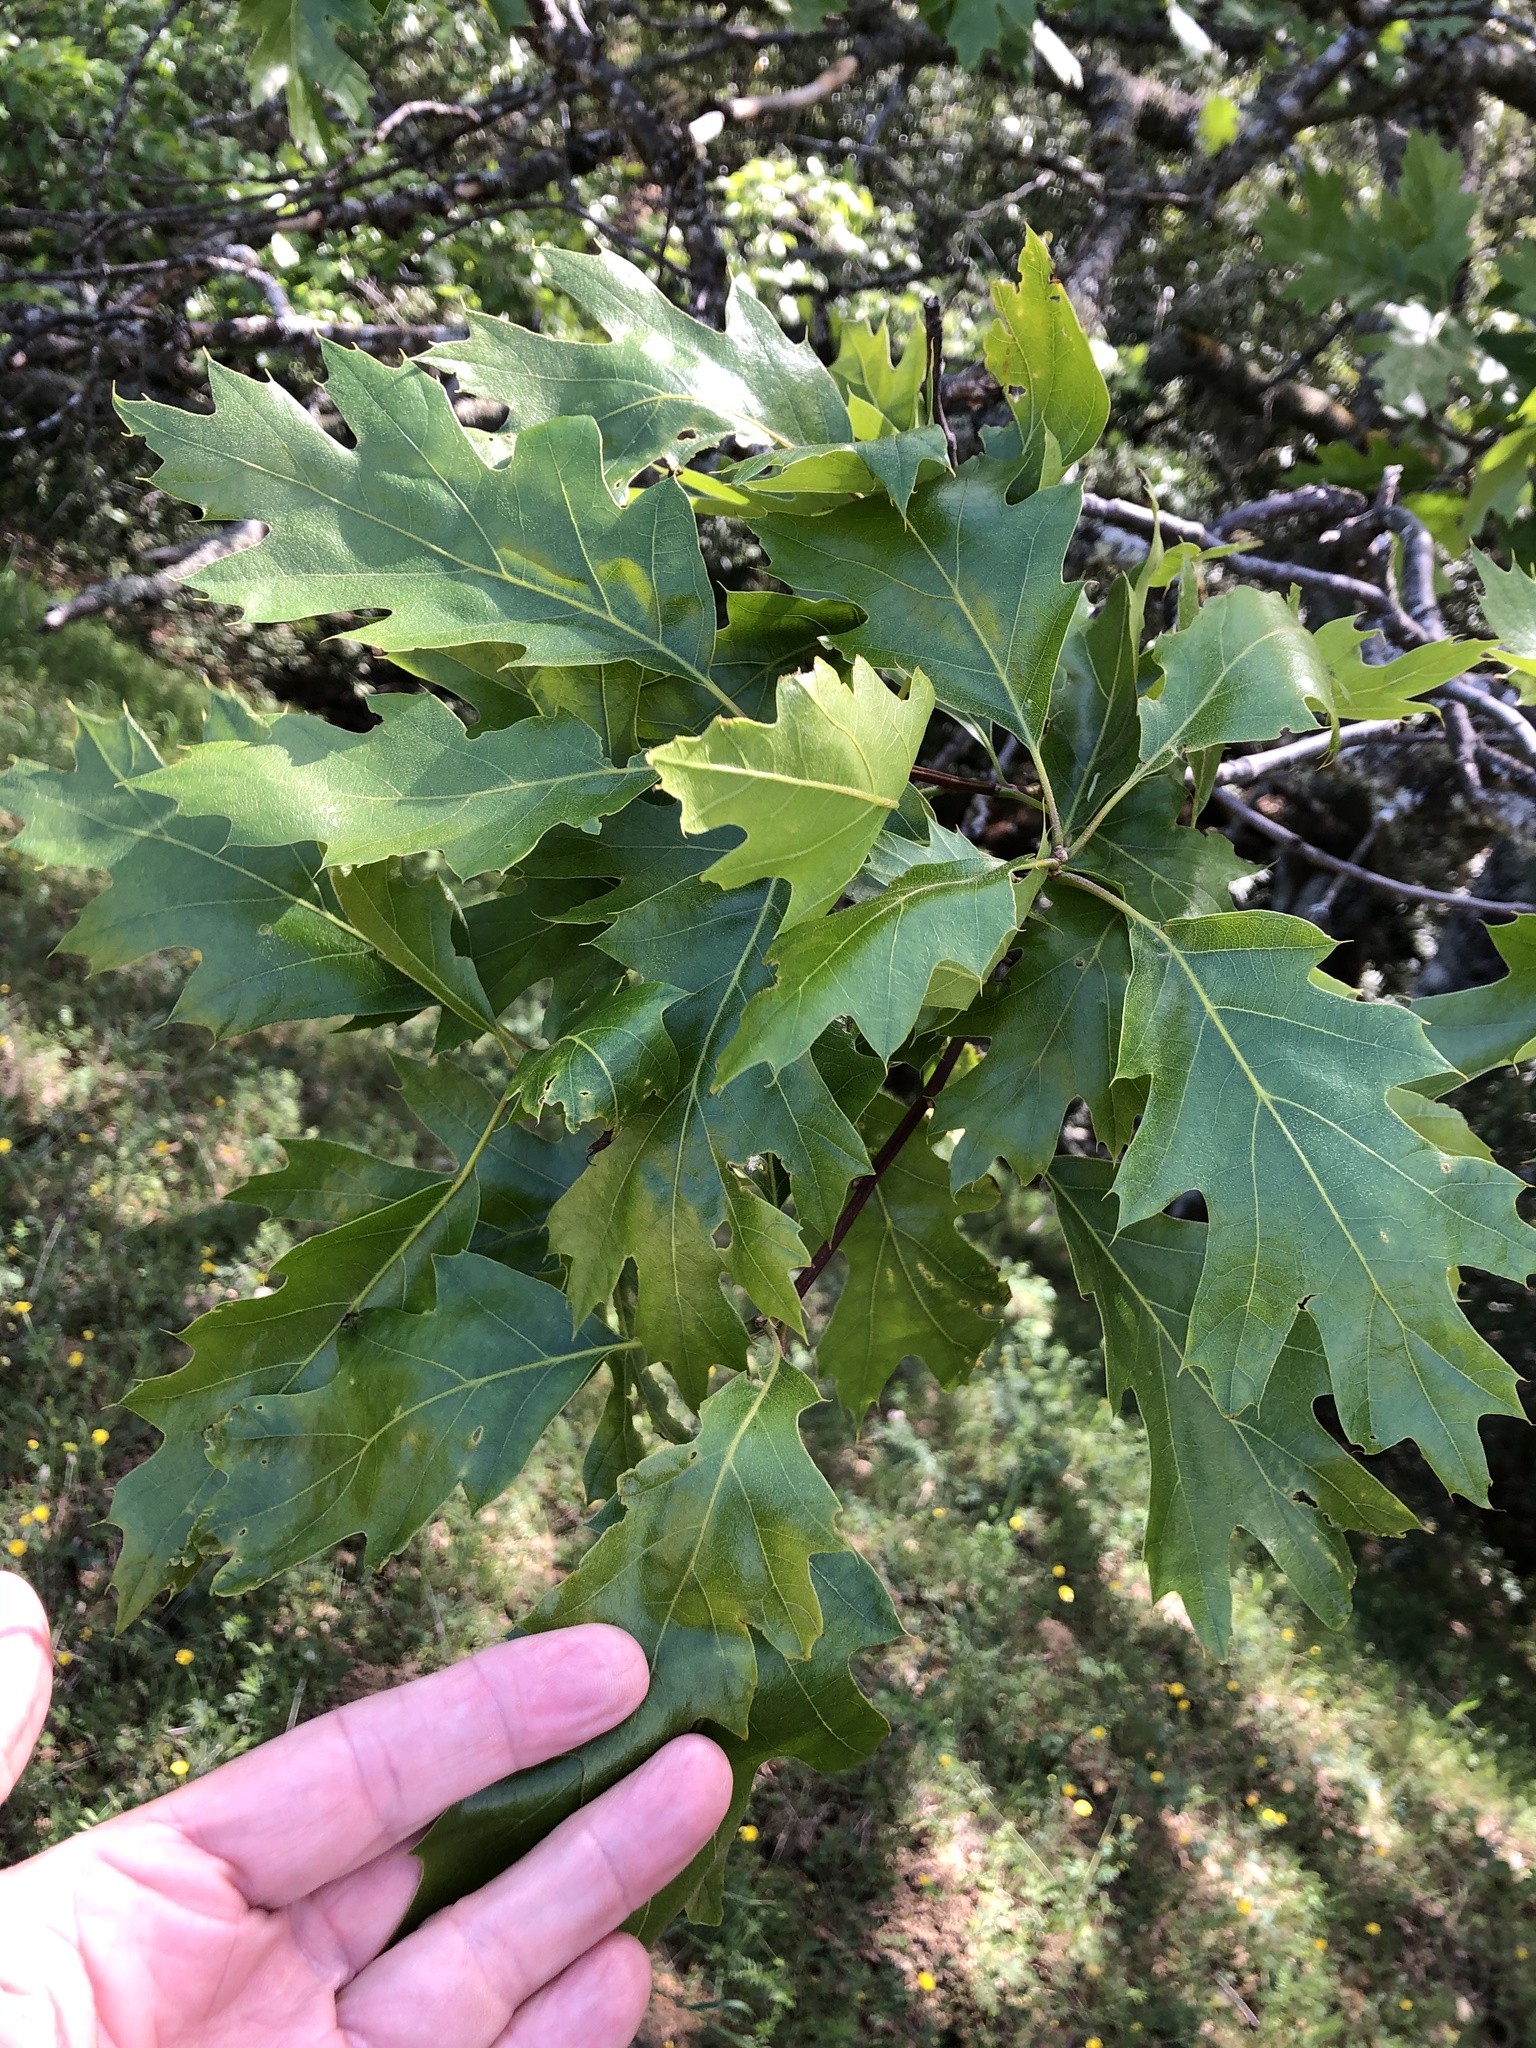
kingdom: Plantae
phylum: Tracheophyta
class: Magnoliopsida
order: Fagales
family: Fagaceae
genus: Quercus
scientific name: Quercus kelloggii
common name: California black oak
